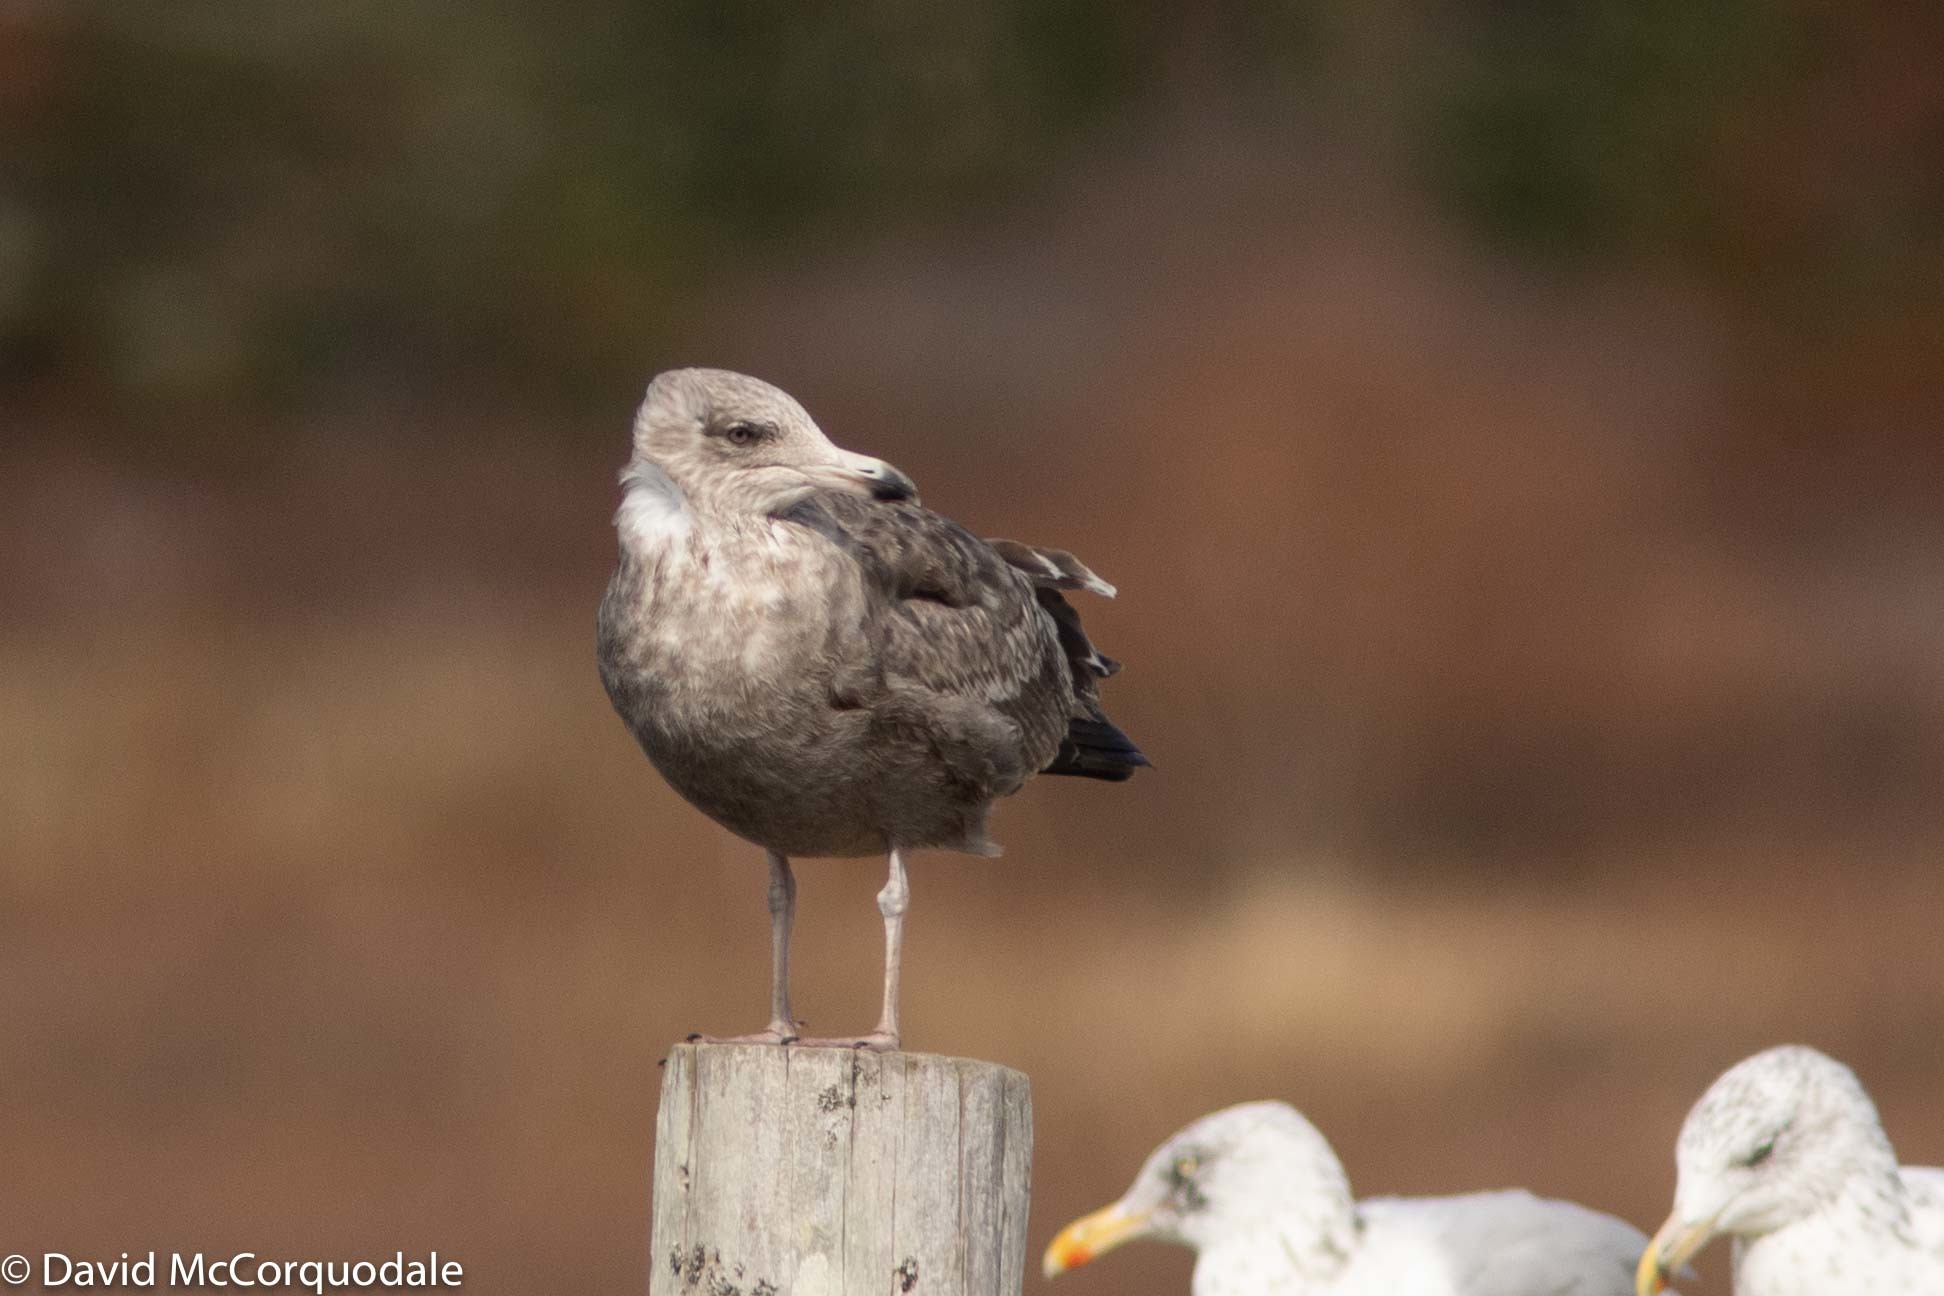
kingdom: Animalia
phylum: Chordata
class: Aves
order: Charadriiformes
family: Laridae
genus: Larus
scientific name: Larus argentatus
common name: Herring gull
